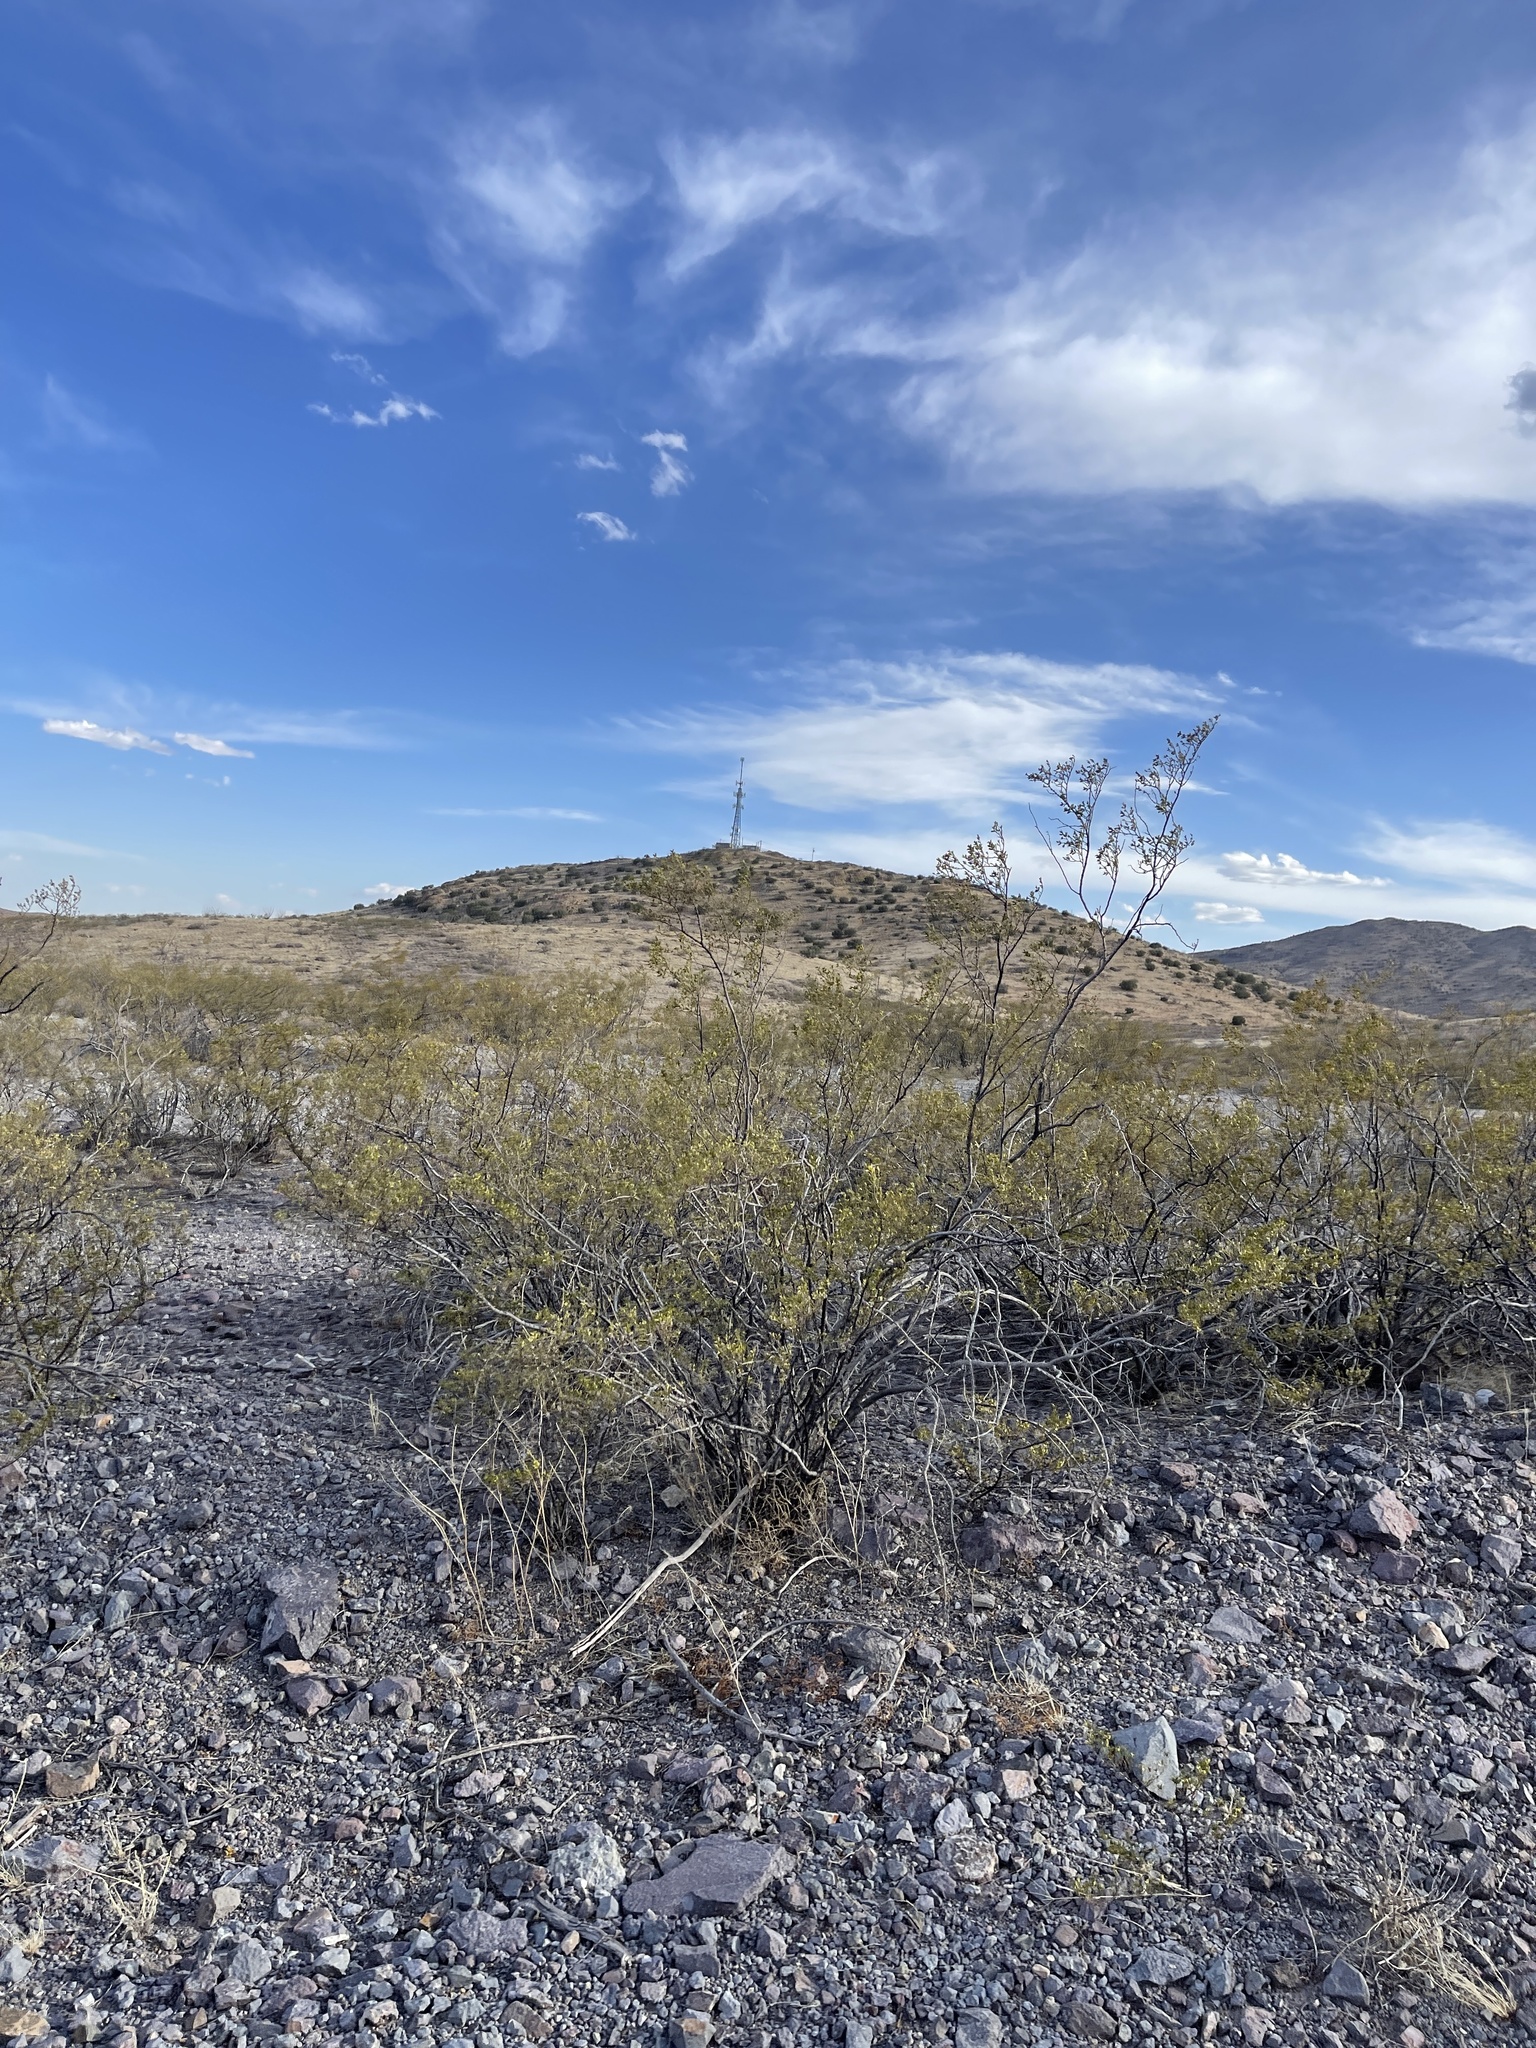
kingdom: Plantae
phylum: Tracheophyta
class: Magnoliopsida
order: Zygophyllales
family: Zygophyllaceae
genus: Larrea
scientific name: Larrea tridentata
